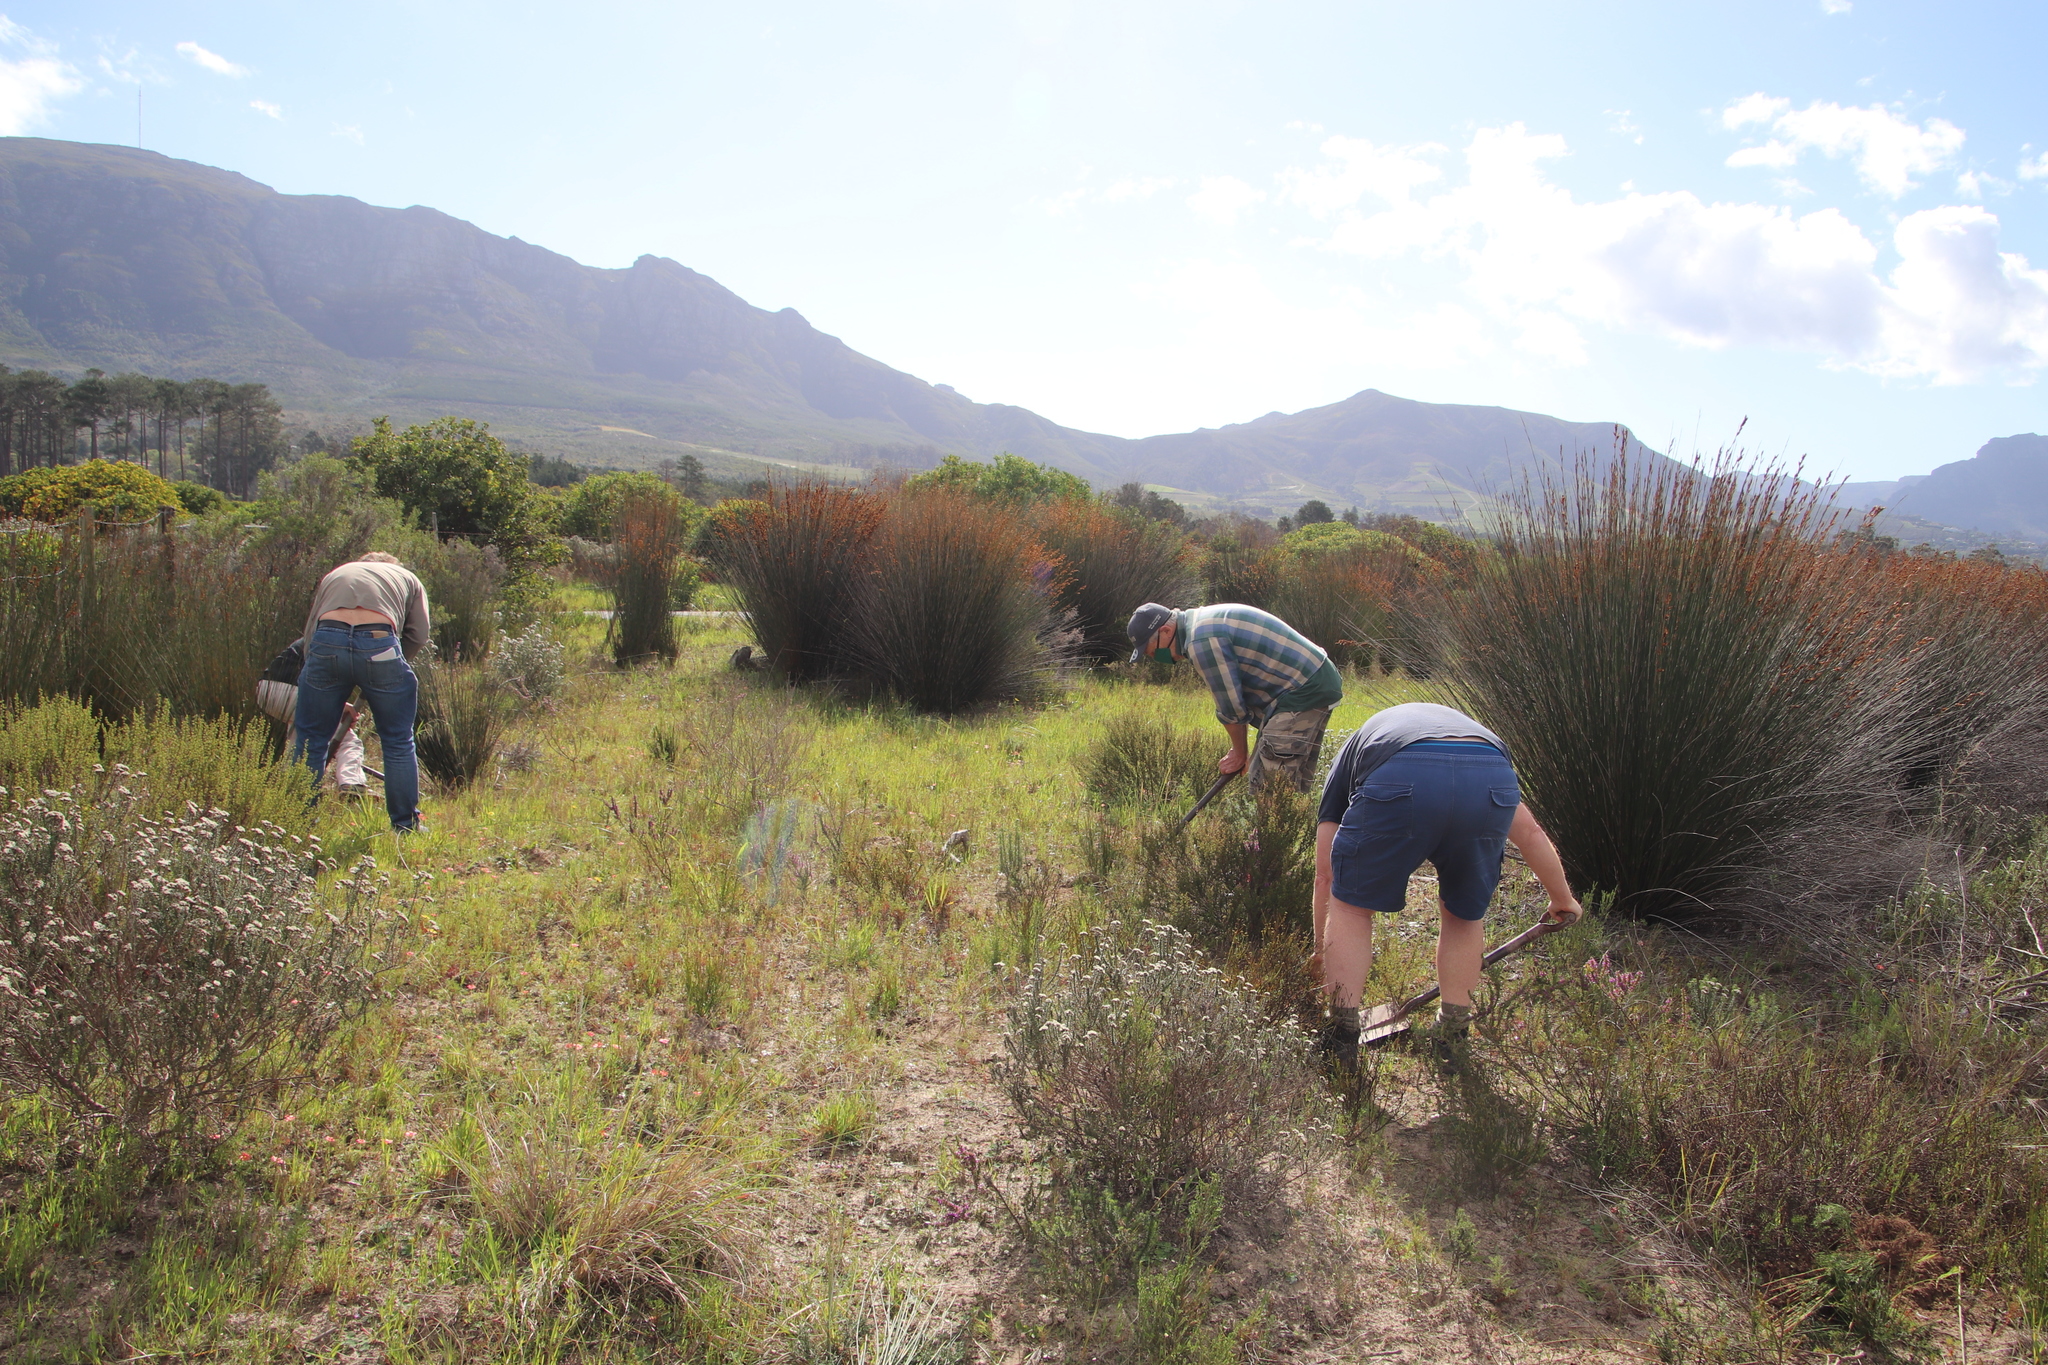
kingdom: Plantae
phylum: Tracheophyta
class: Liliopsida
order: Poales
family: Restionaceae
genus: Thamnochortus
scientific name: Thamnochortus insignis
